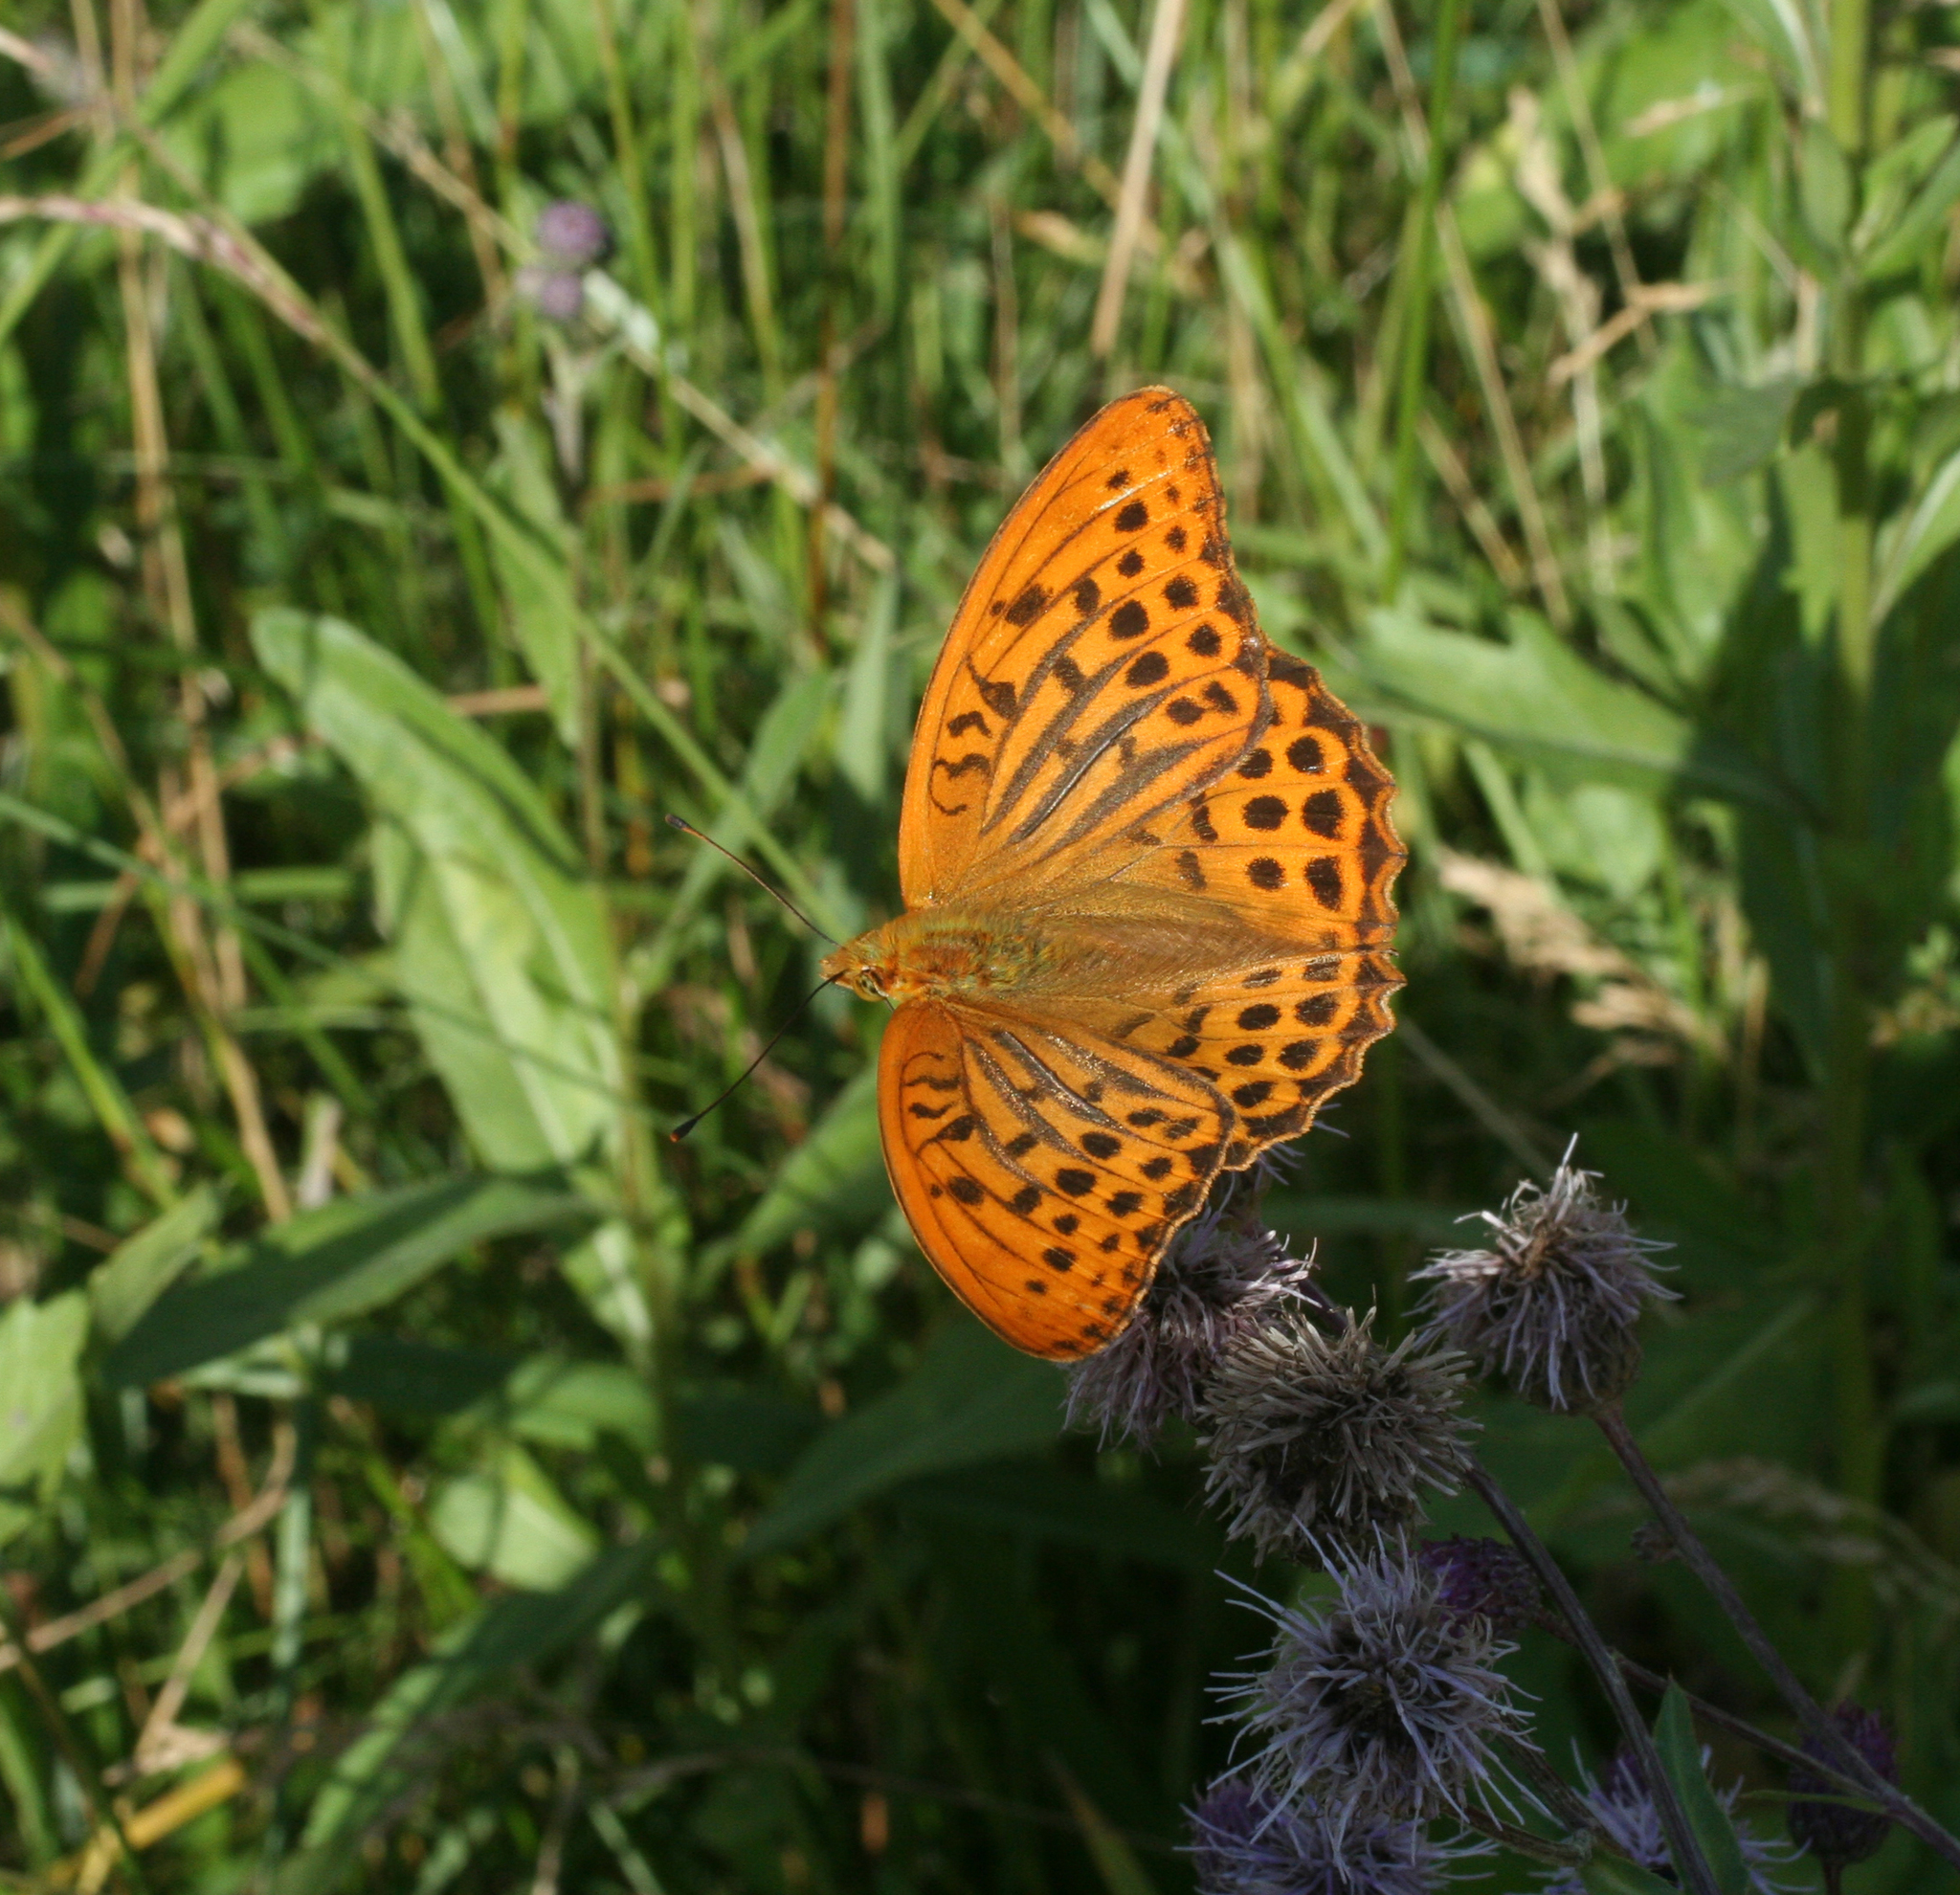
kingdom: Animalia
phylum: Arthropoda
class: Insecta
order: Lepidoptera
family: Nymphalidae
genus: Argynnis
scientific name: Argynnis paphia
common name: Silver-washed fritillary
